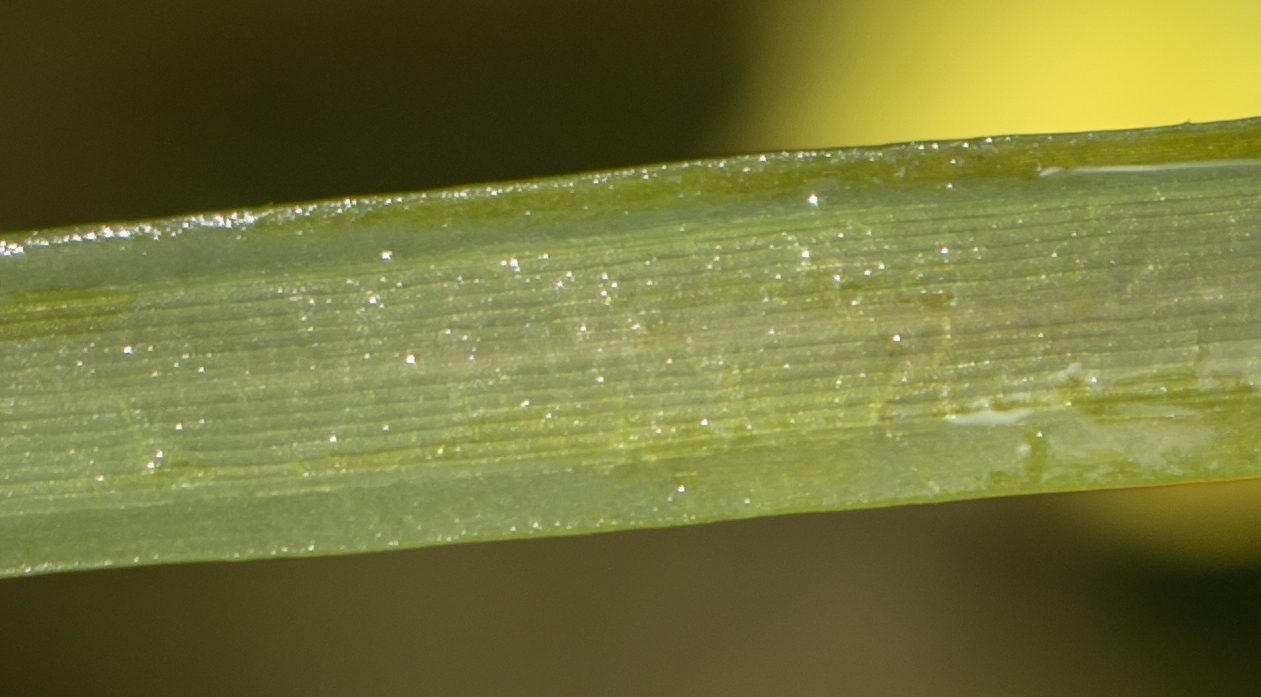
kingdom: Plantae
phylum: Tracheophyta
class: Liliopsida
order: Alismatales
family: Hydrocharitaceae
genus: Vallisneria
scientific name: Vallisneria americana
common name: American eelgrass
